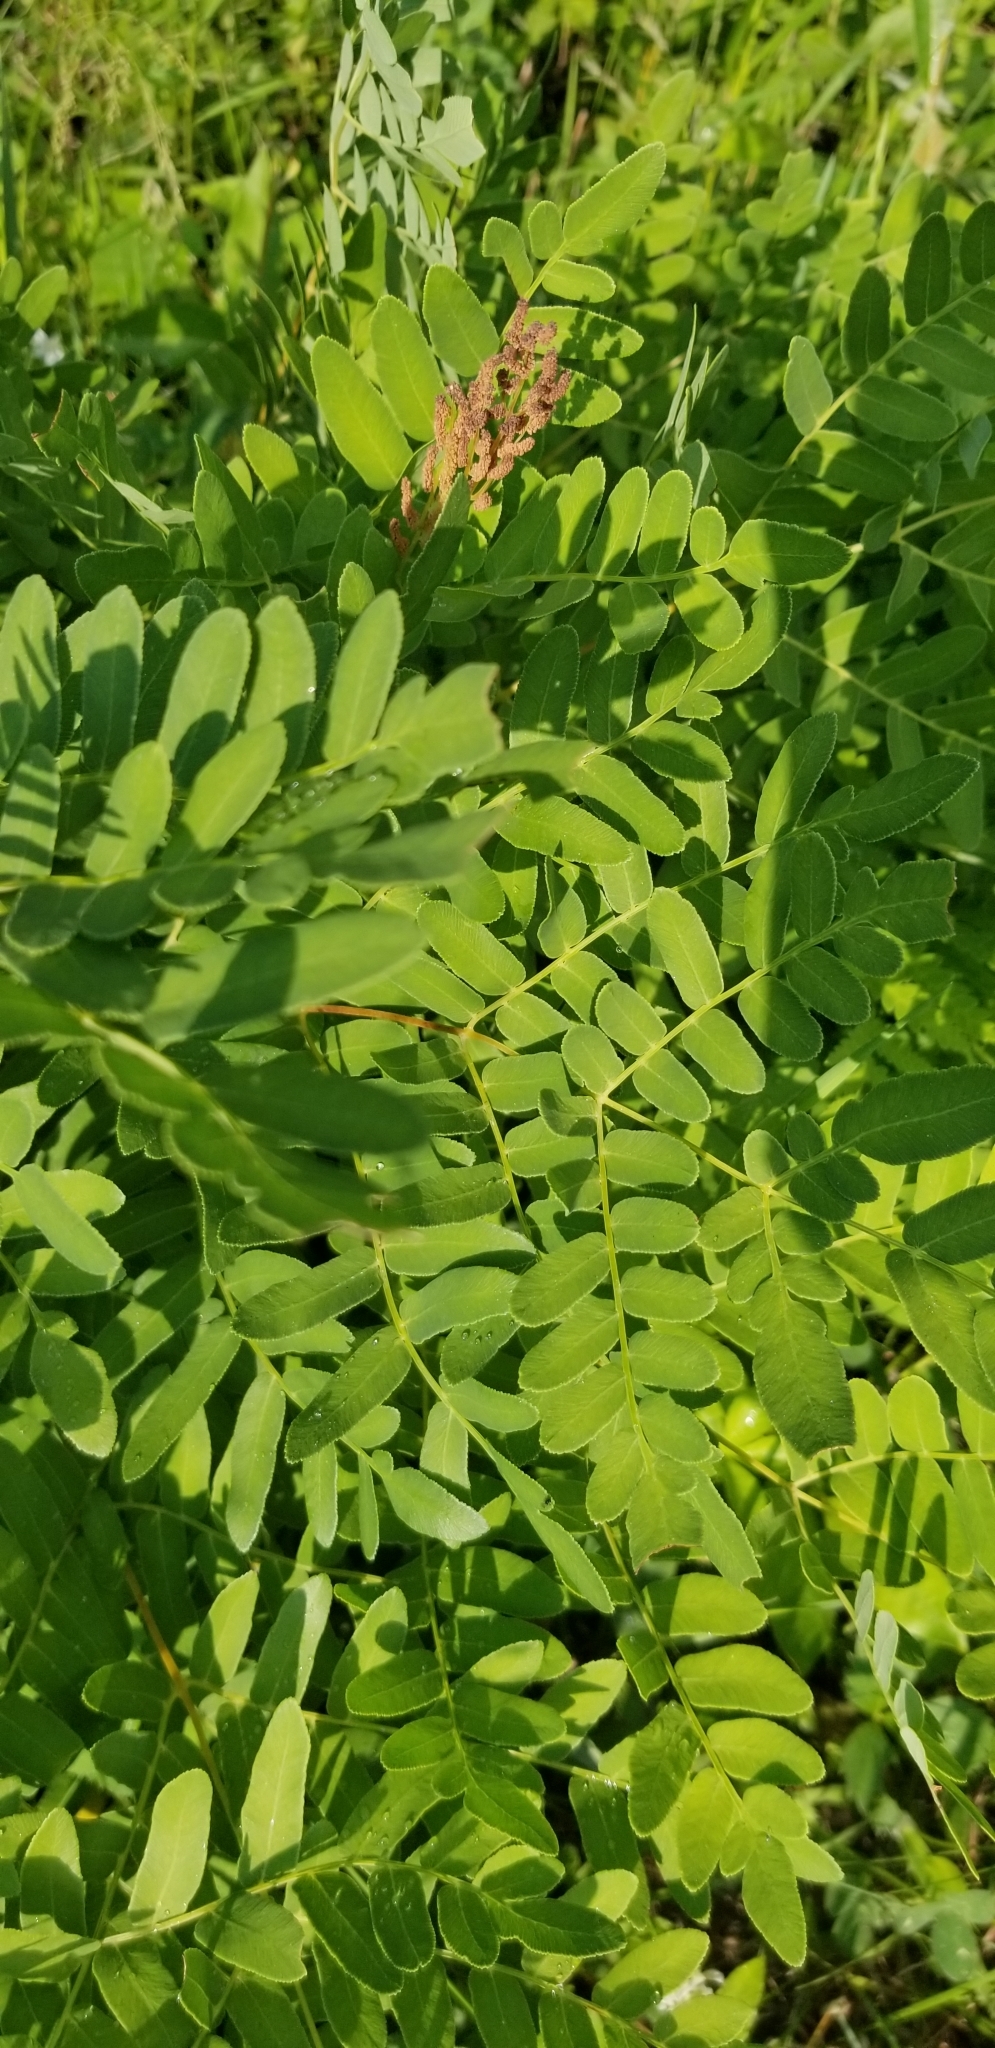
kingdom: Plantae
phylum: Tracheophyta
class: Polypodiopsida
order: Osmundales
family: Osmundaceae
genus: Osmunda
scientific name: Osmunda spectabilis
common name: American royal fern
